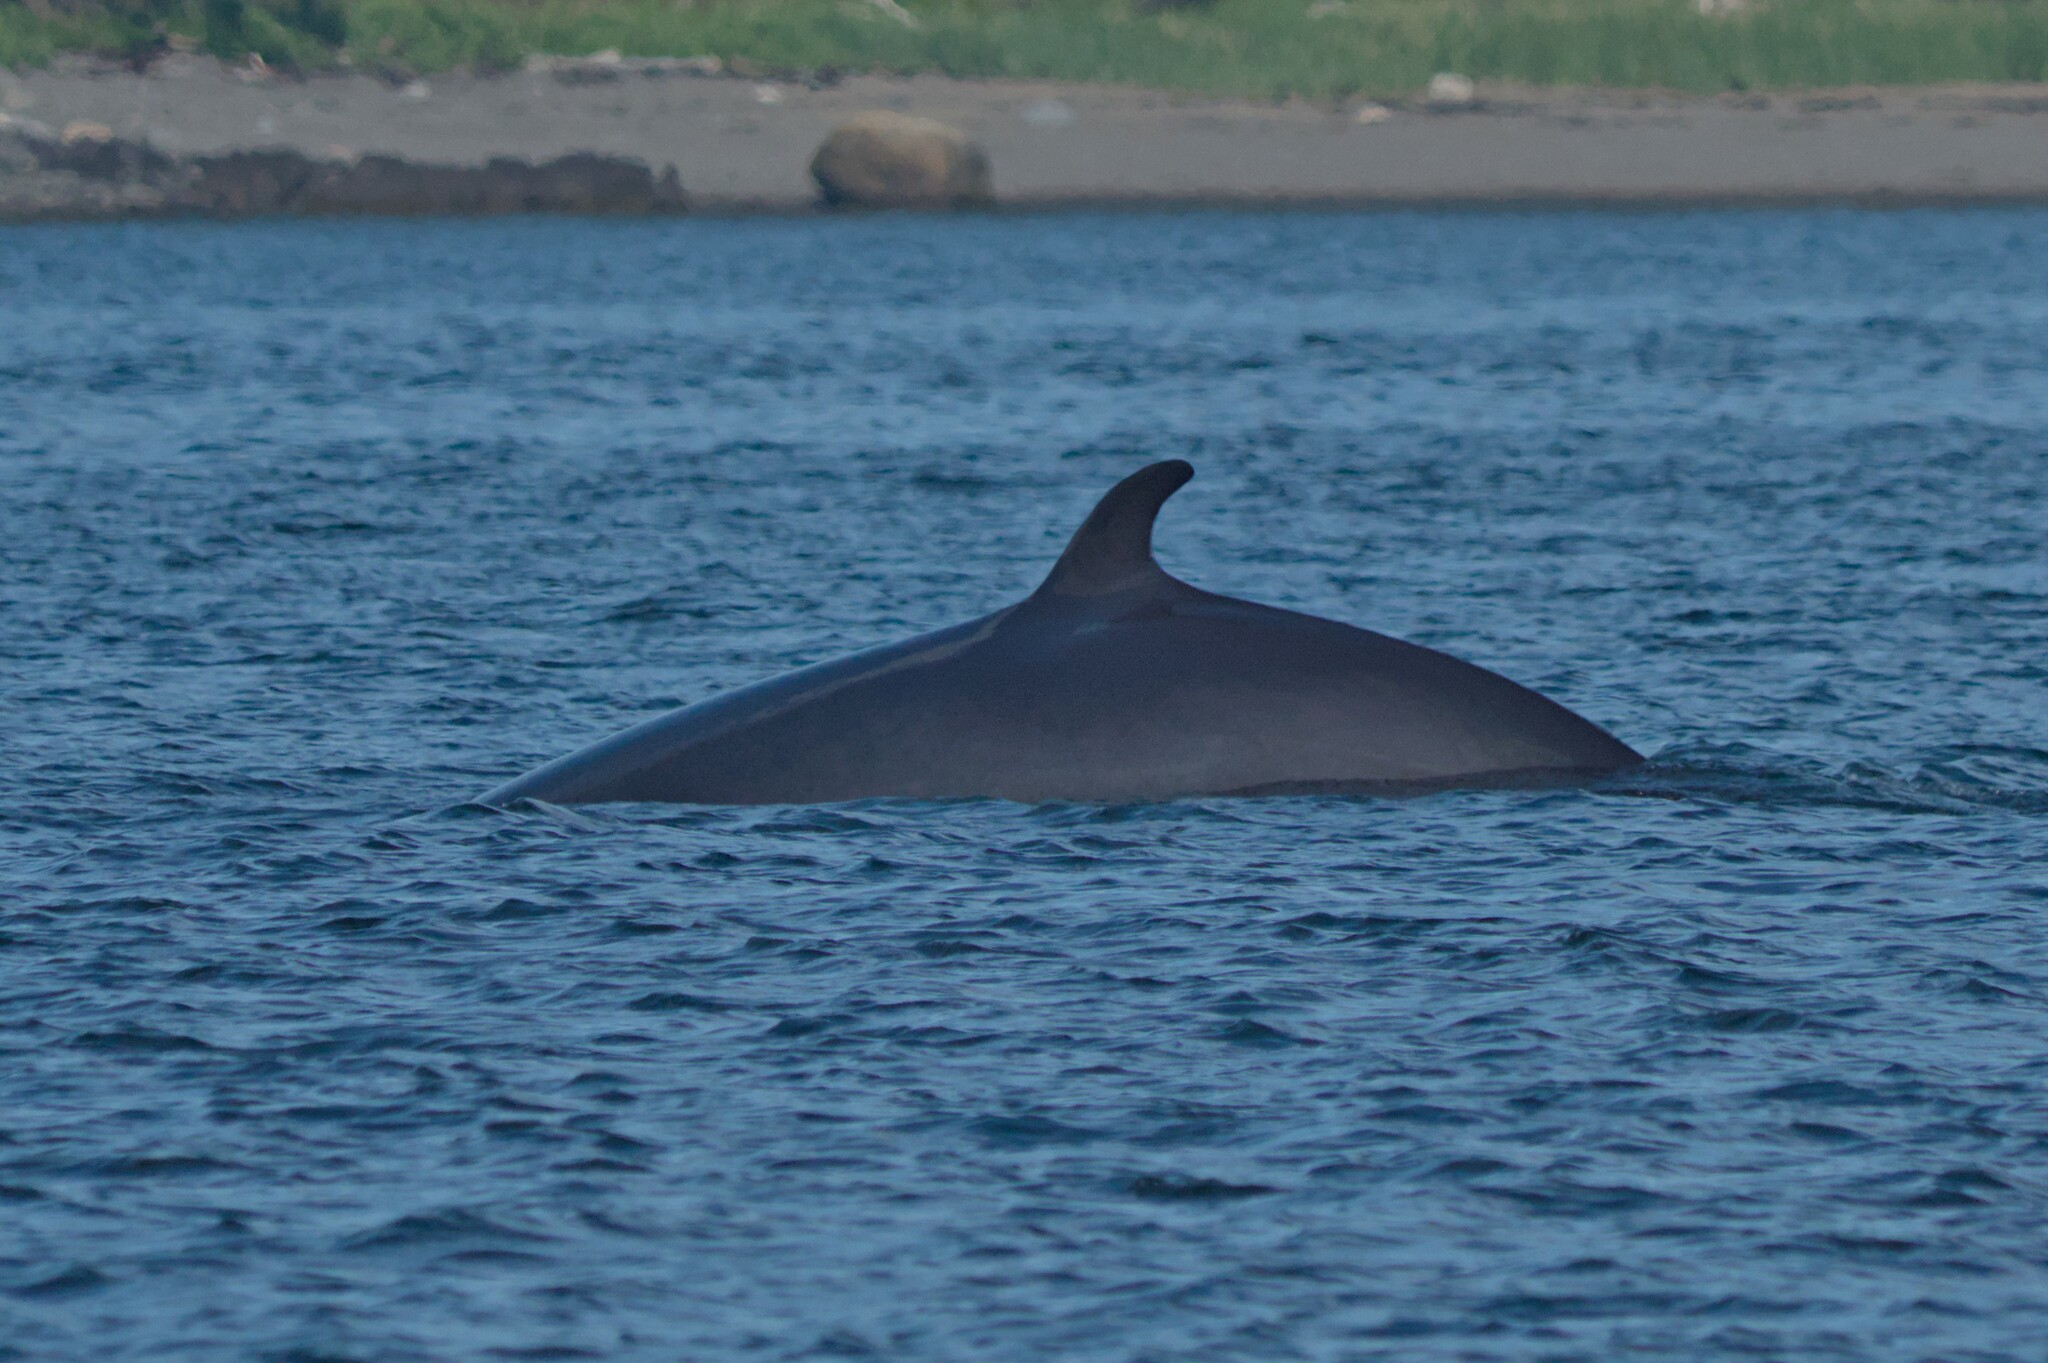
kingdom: Animalia
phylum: Chordata
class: Mammalia
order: Cetacea
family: Balaenopteridae
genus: Balaenoptera
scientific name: Balaenoptera acutorostrata
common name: Common minke whale
